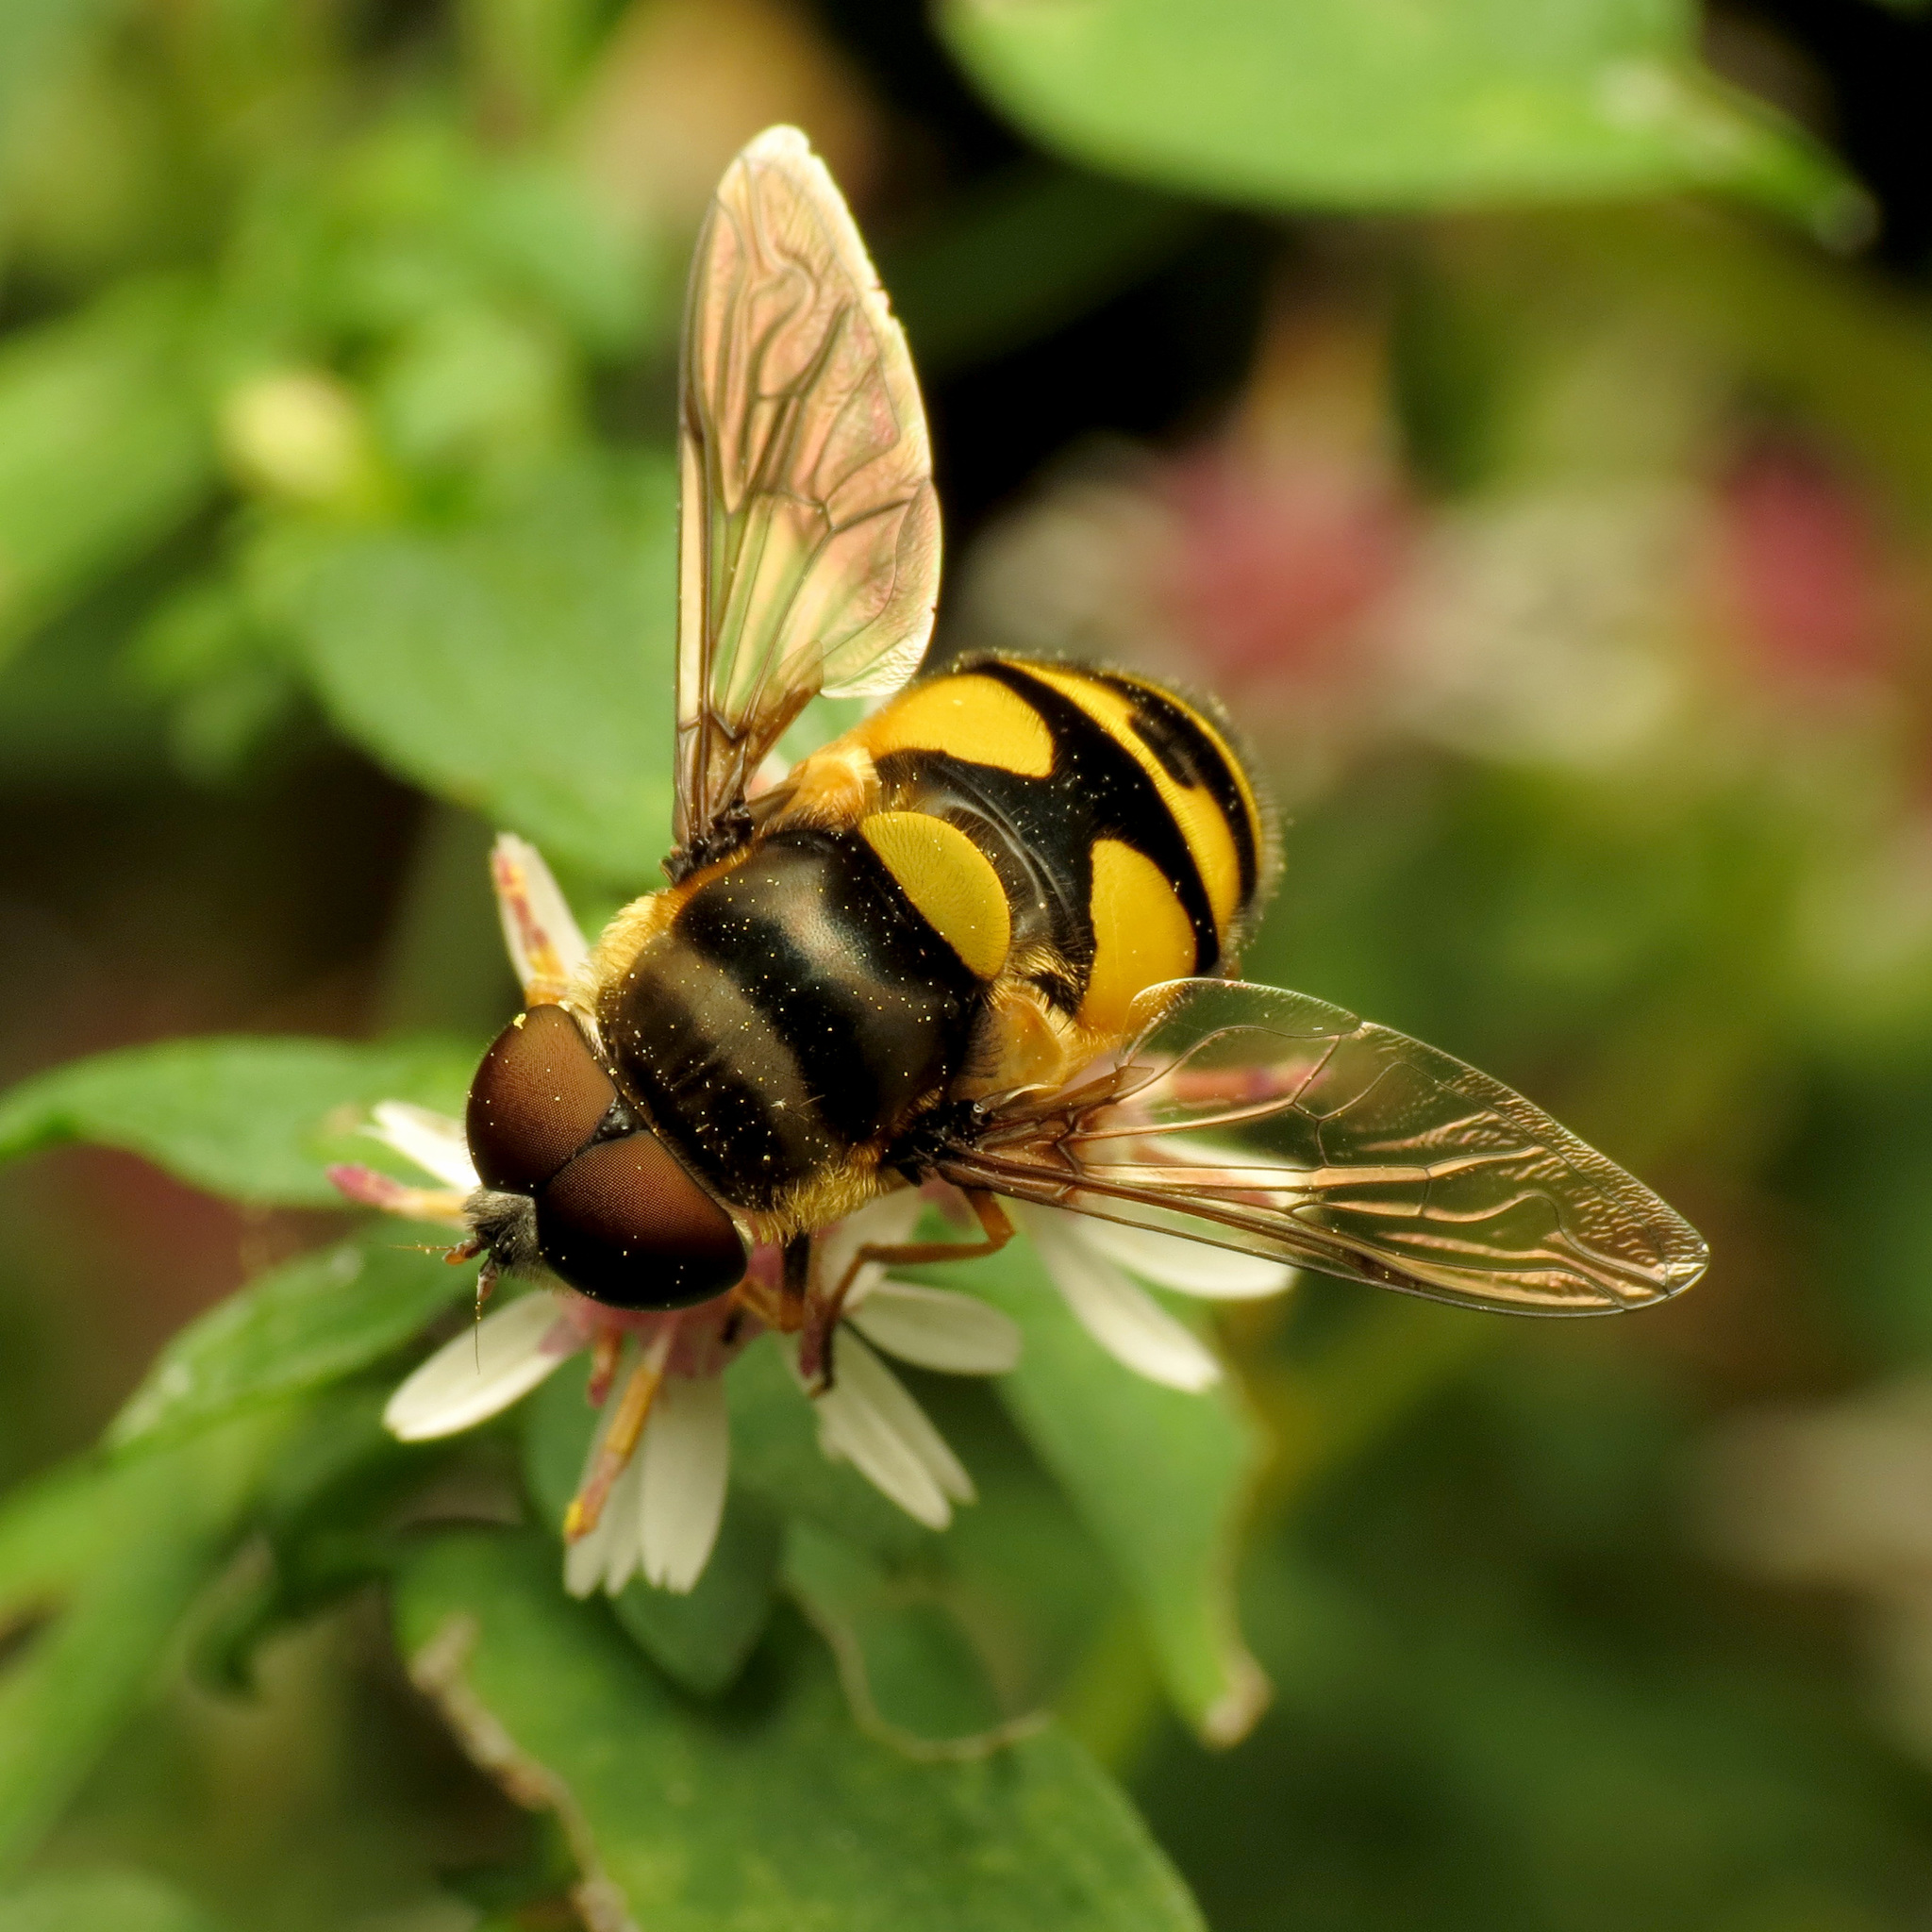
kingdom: Animalia
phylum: Arthropoda
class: Insecta
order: Diptera
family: Syrphidae
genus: Eristalis
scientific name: Eristalis transversa
